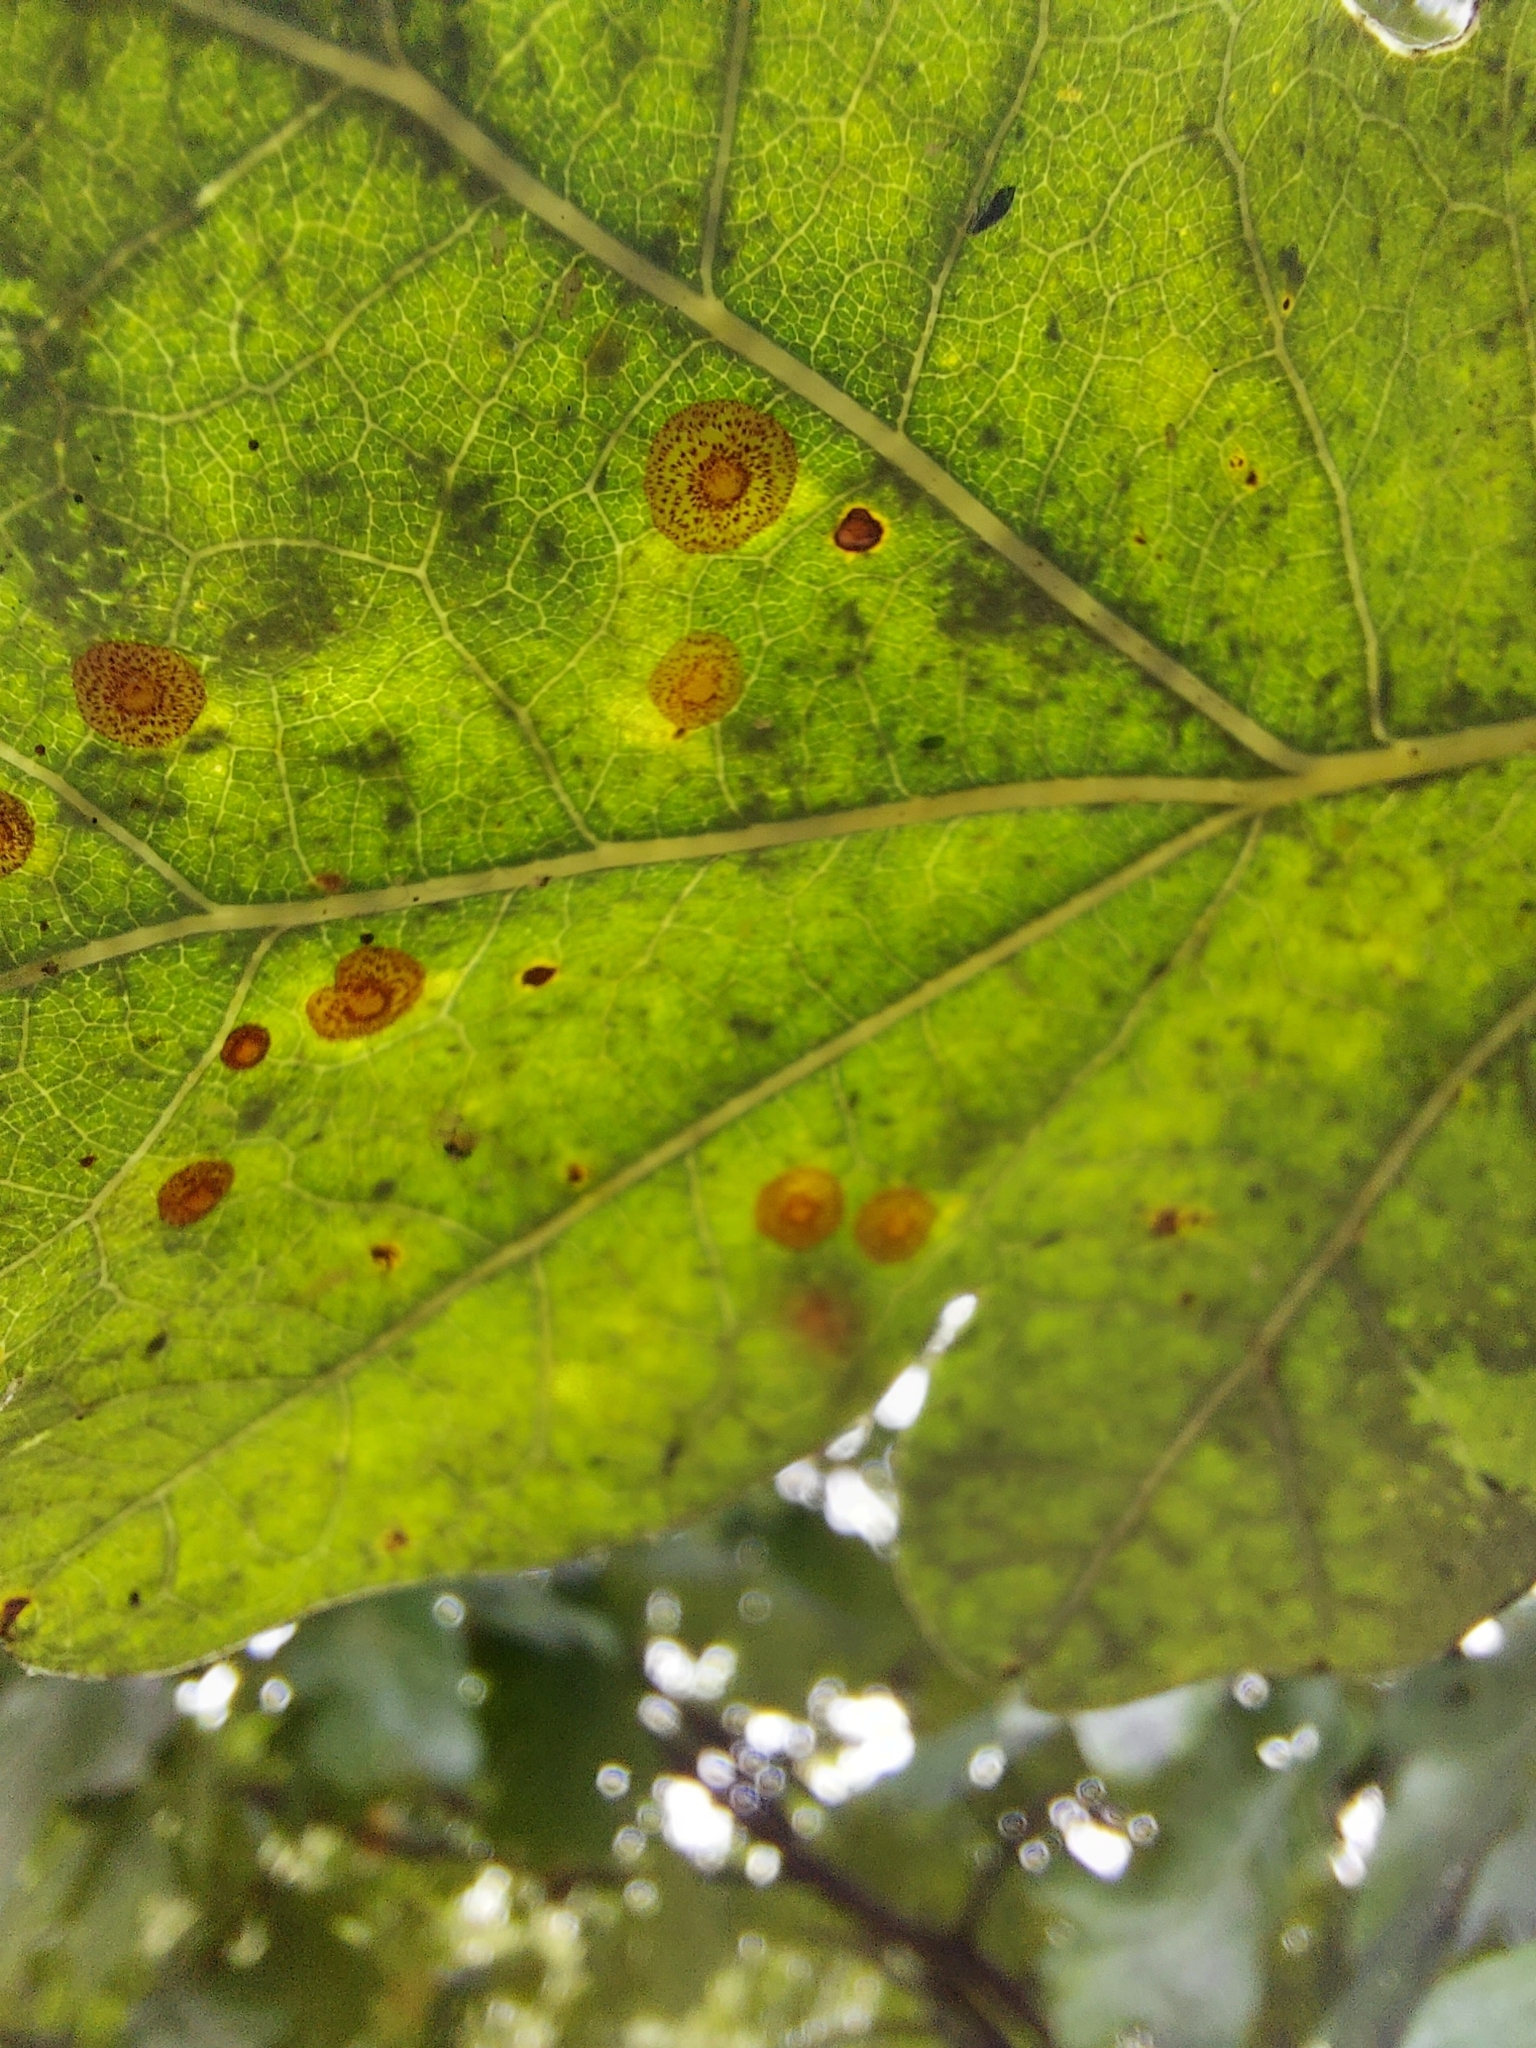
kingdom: Animalia
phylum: Arthropoda
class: Insecta
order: Hymenoptera
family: Cynipidae
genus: Neuroterus
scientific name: Neuroterus quercusbaccarum
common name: Common spangle gall
